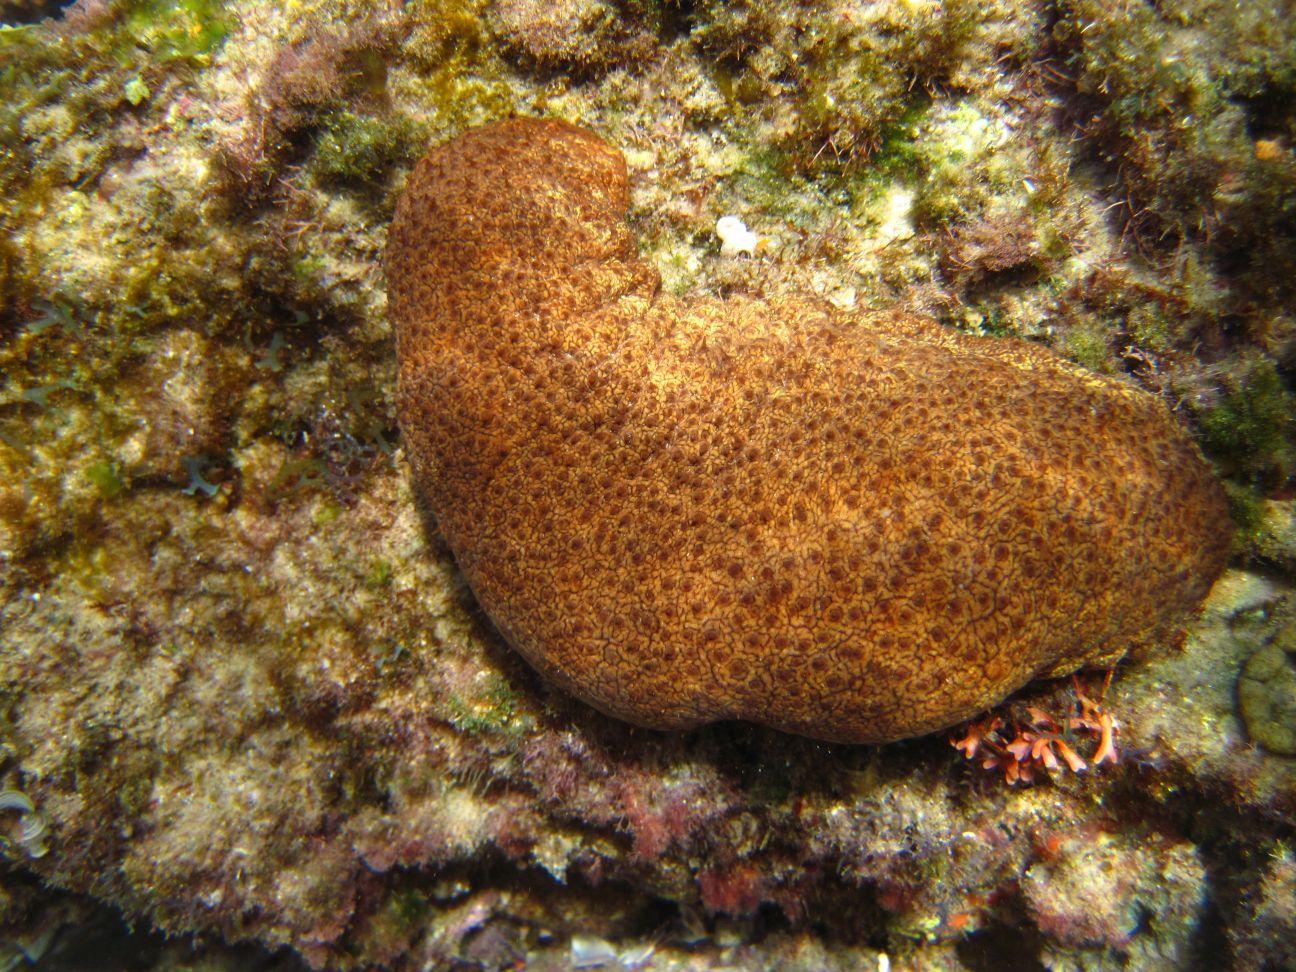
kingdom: Animalia
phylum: Echinodermata
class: Holothuroidea
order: Holothuriida
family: Holothuriidae
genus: Actinopyga
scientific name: Actinopyga mauritiana
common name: Surf redfish
